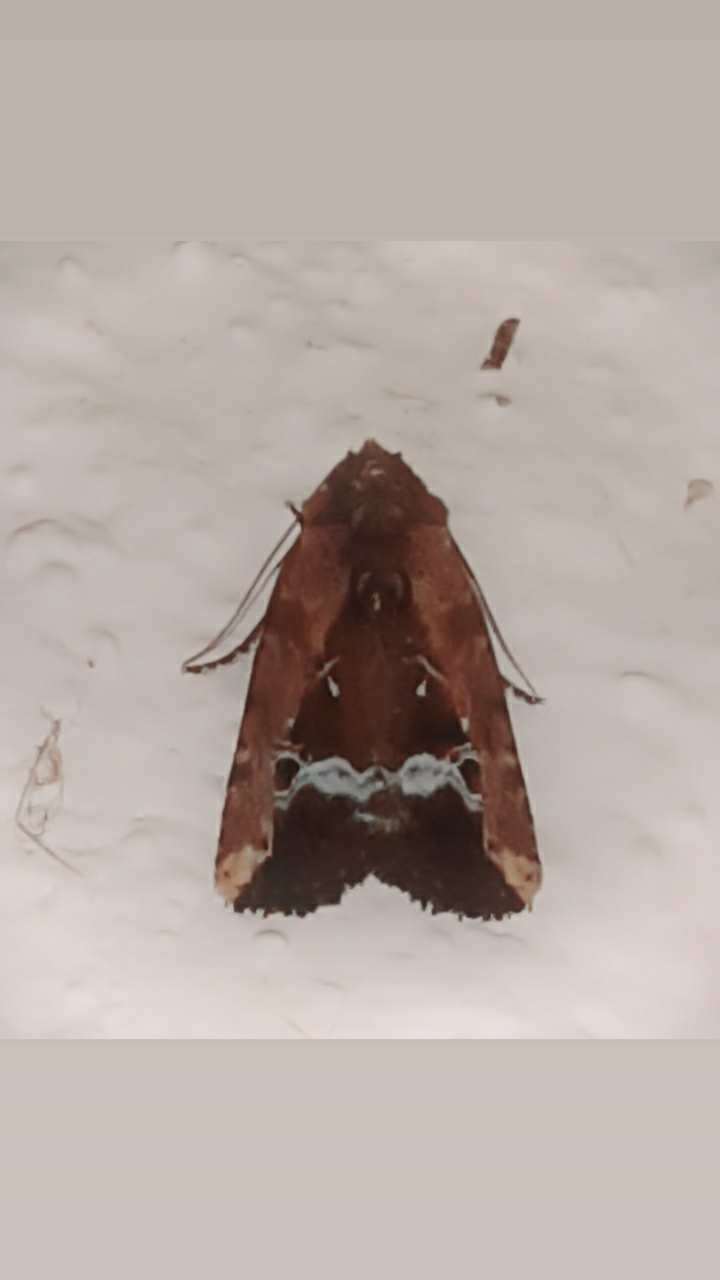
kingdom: Animalia
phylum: Arthropoda
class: Insecta
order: Lepidoptera
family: Noctuidae
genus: Elaphria
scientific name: Elaphria subobliqua
